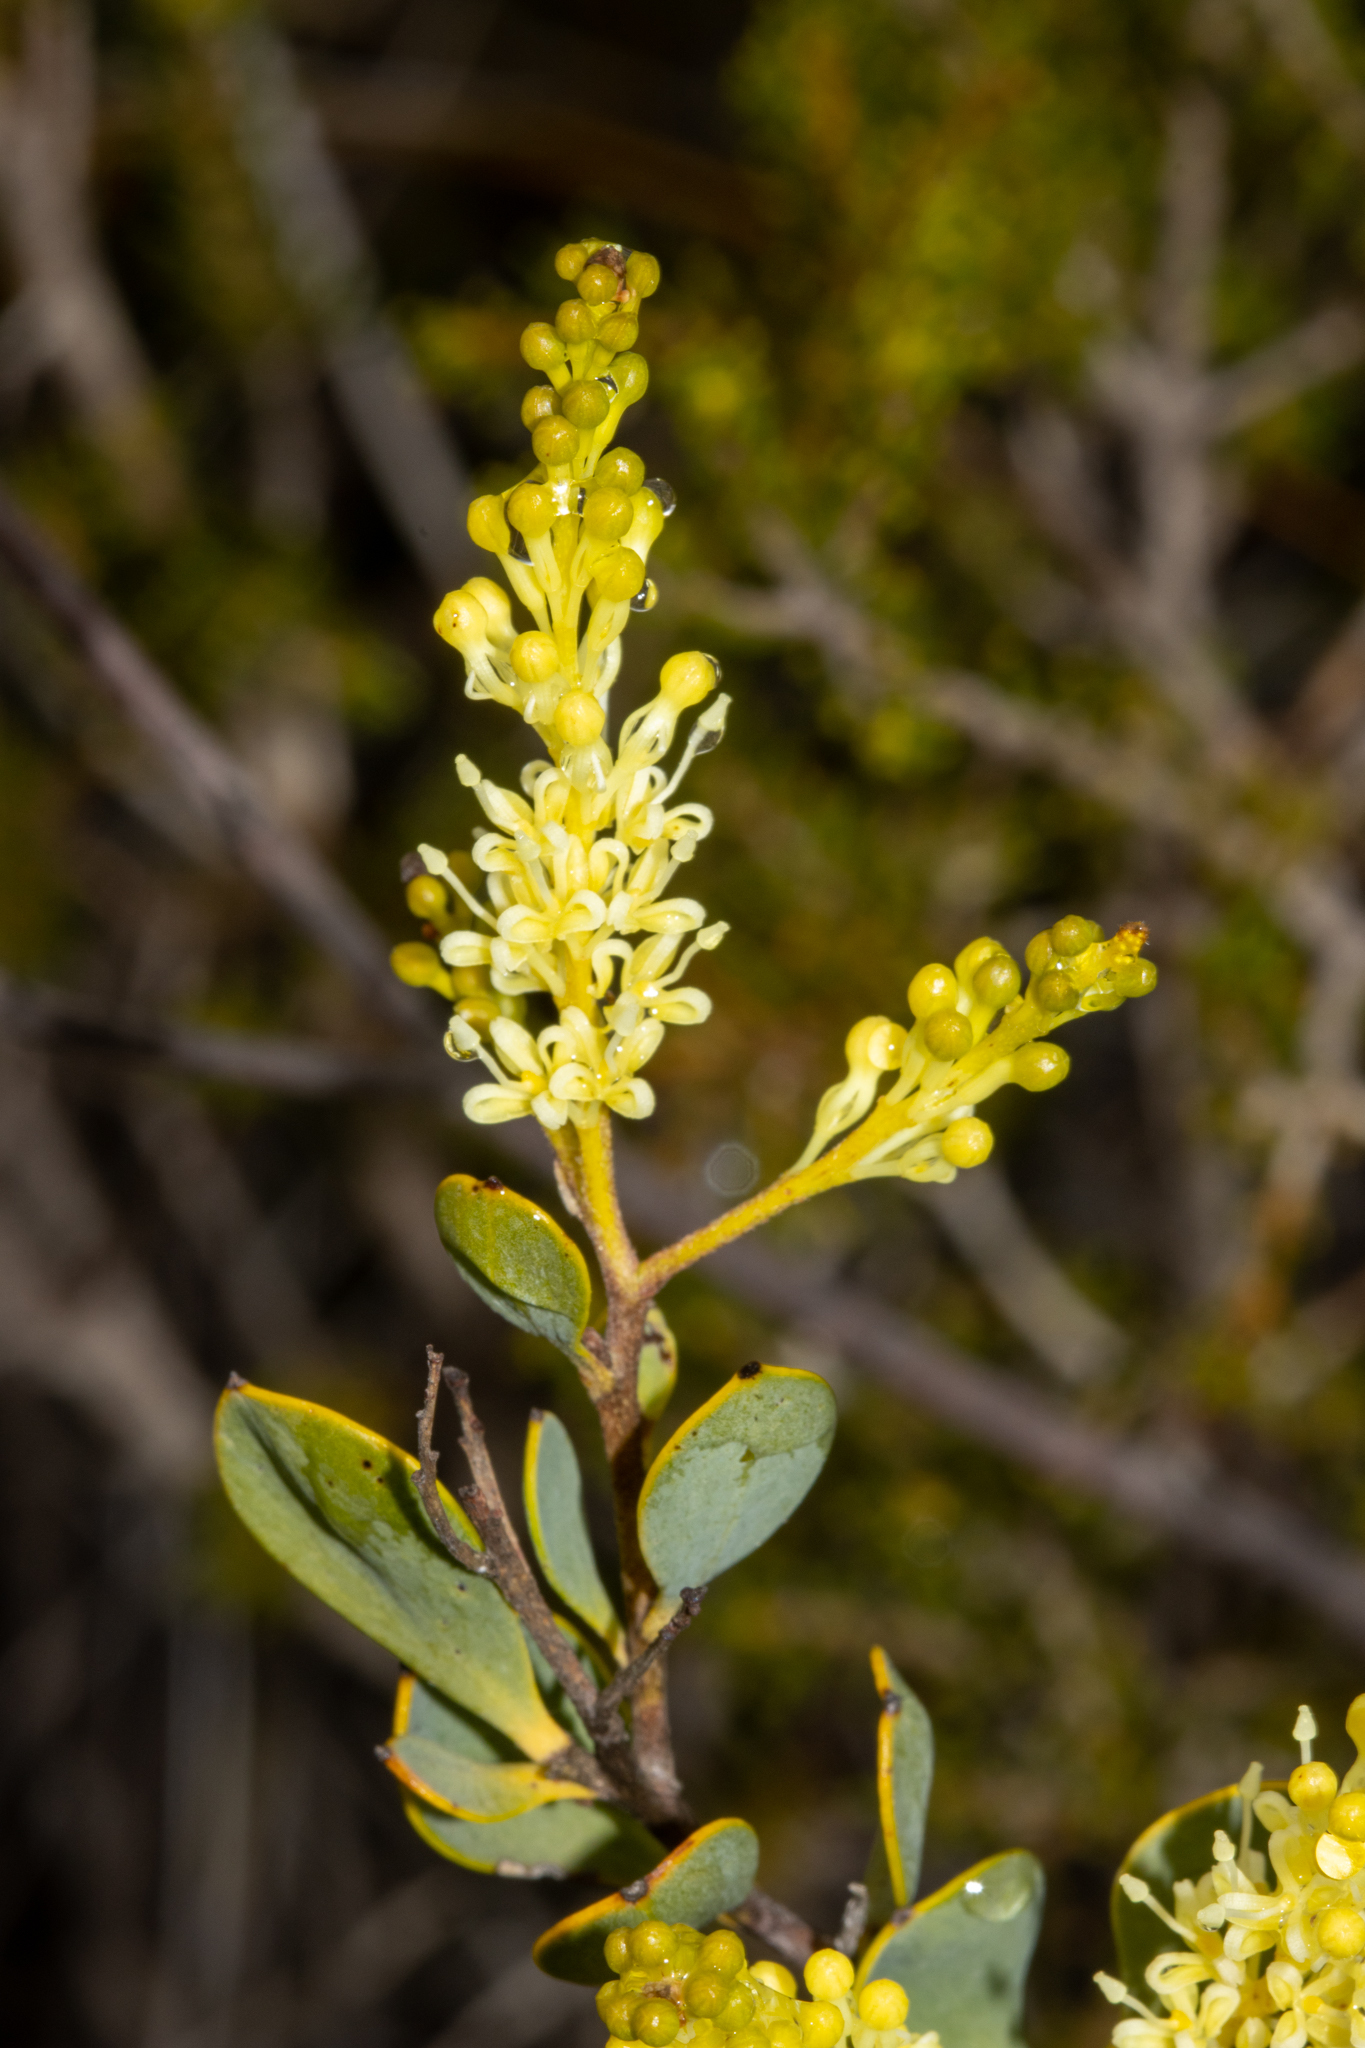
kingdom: Plantae
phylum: Tracheophyta
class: Magnoliopsida
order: Proteales
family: Proteaceae
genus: Grevillea
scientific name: Grevillea shuttleworthiana
